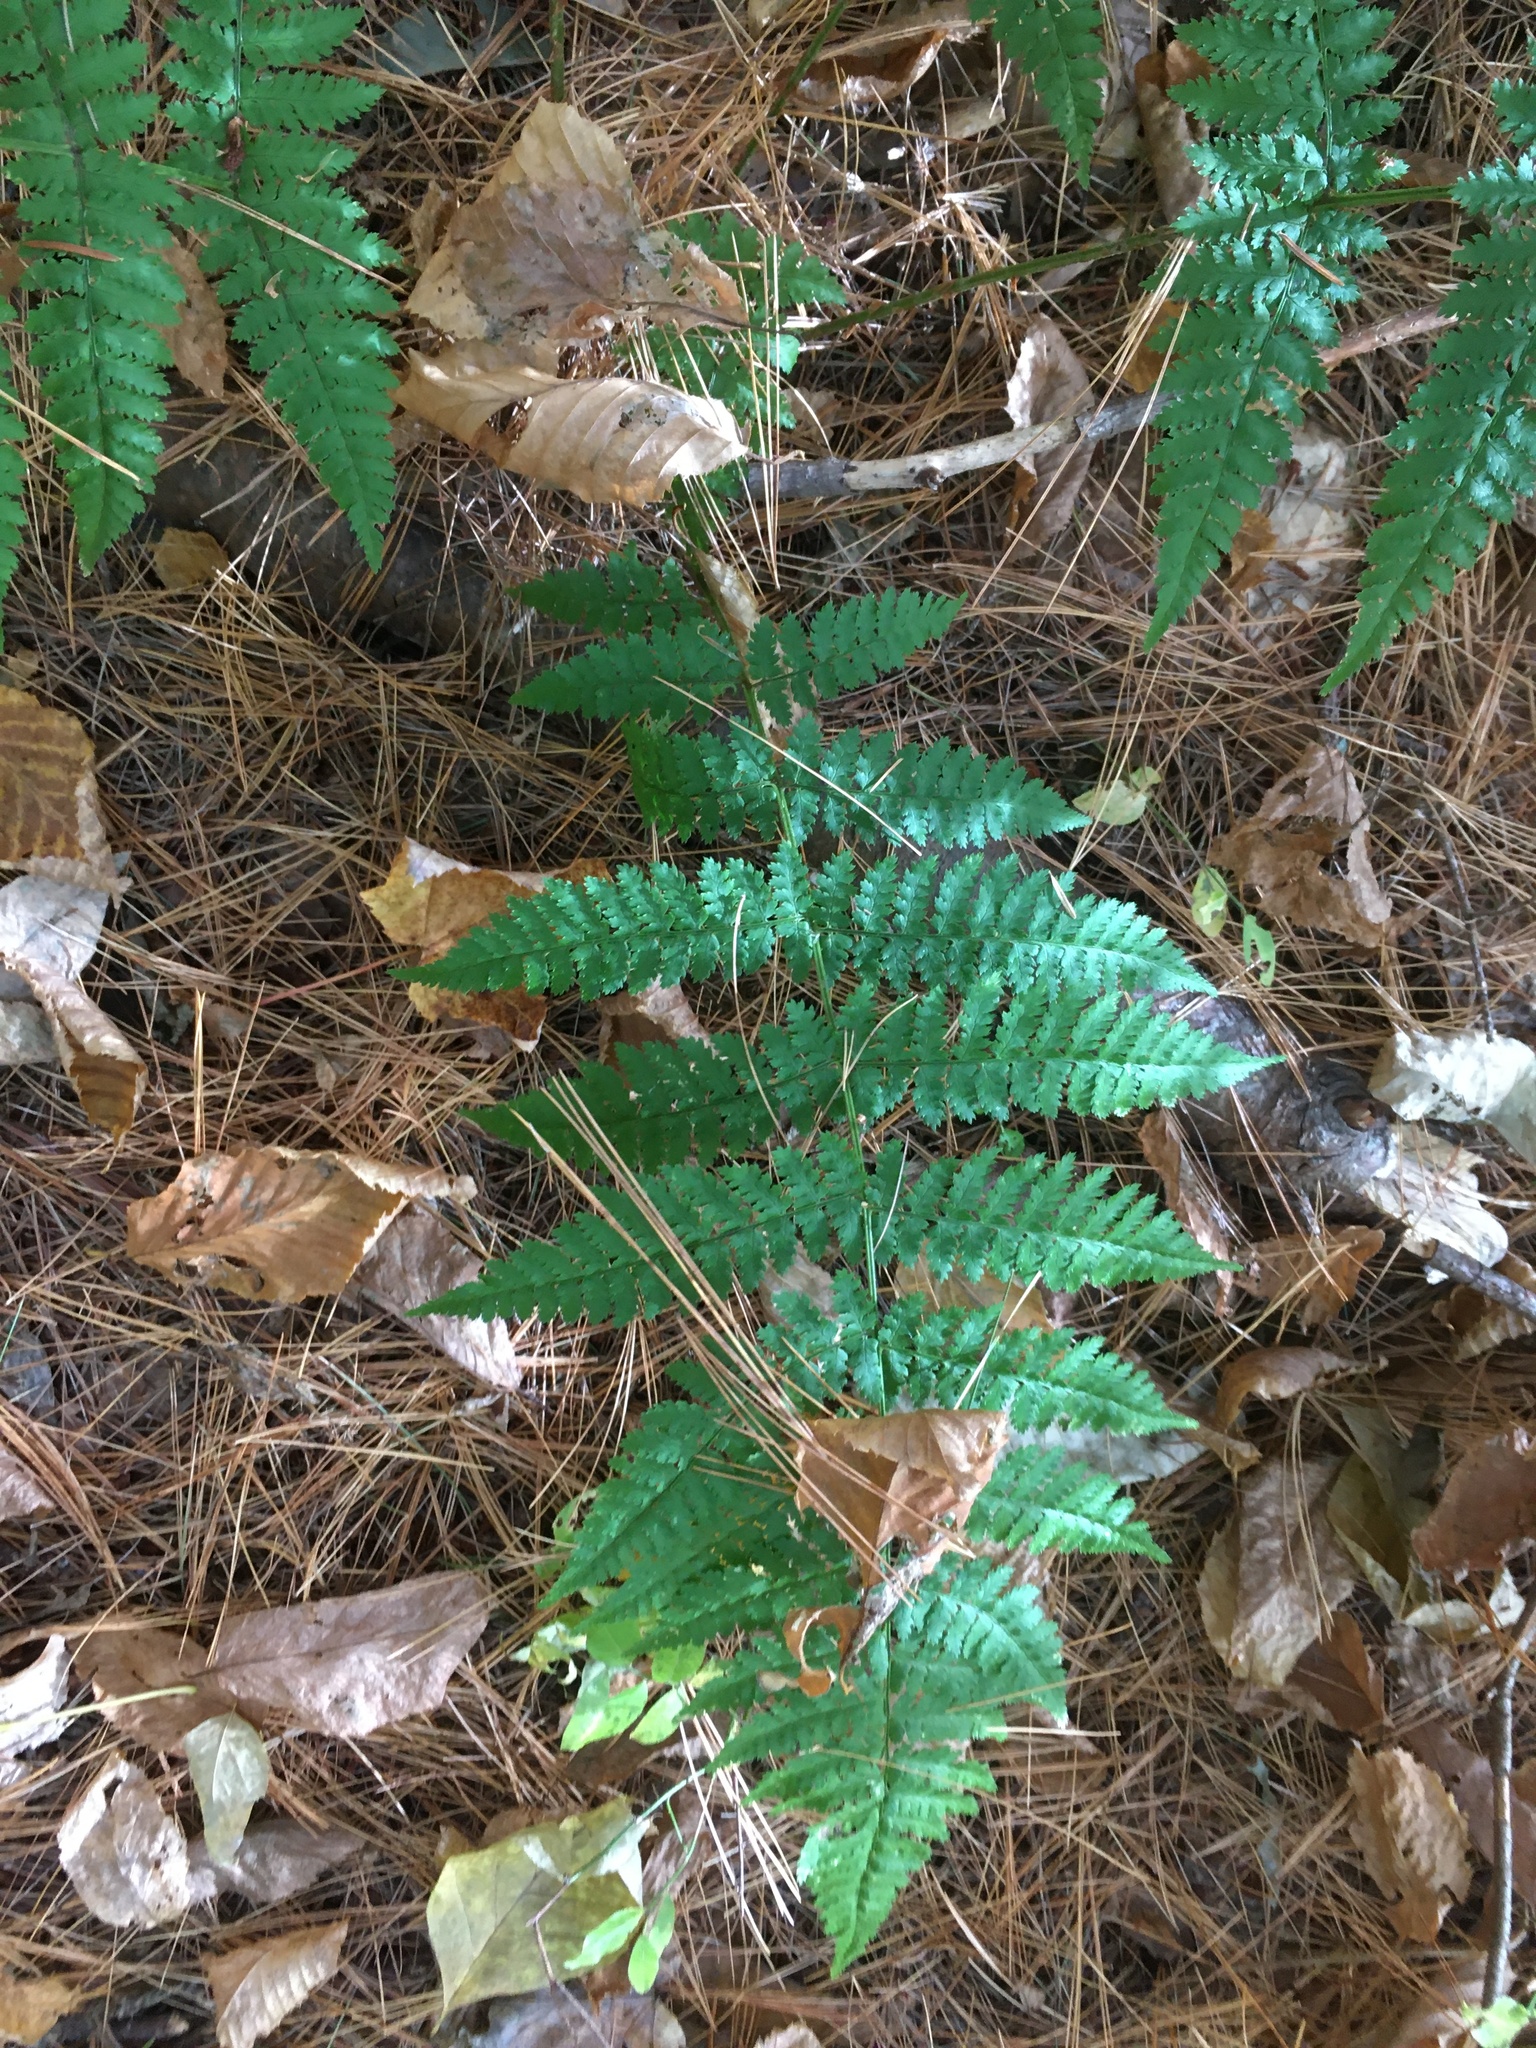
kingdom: Plantae
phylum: Tracheophyta
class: Polypodiopsida
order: Polypodiales
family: Dryopteridaceae
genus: Dryopteris
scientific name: Dryopteris intermedia
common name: Evergreen wood fern
